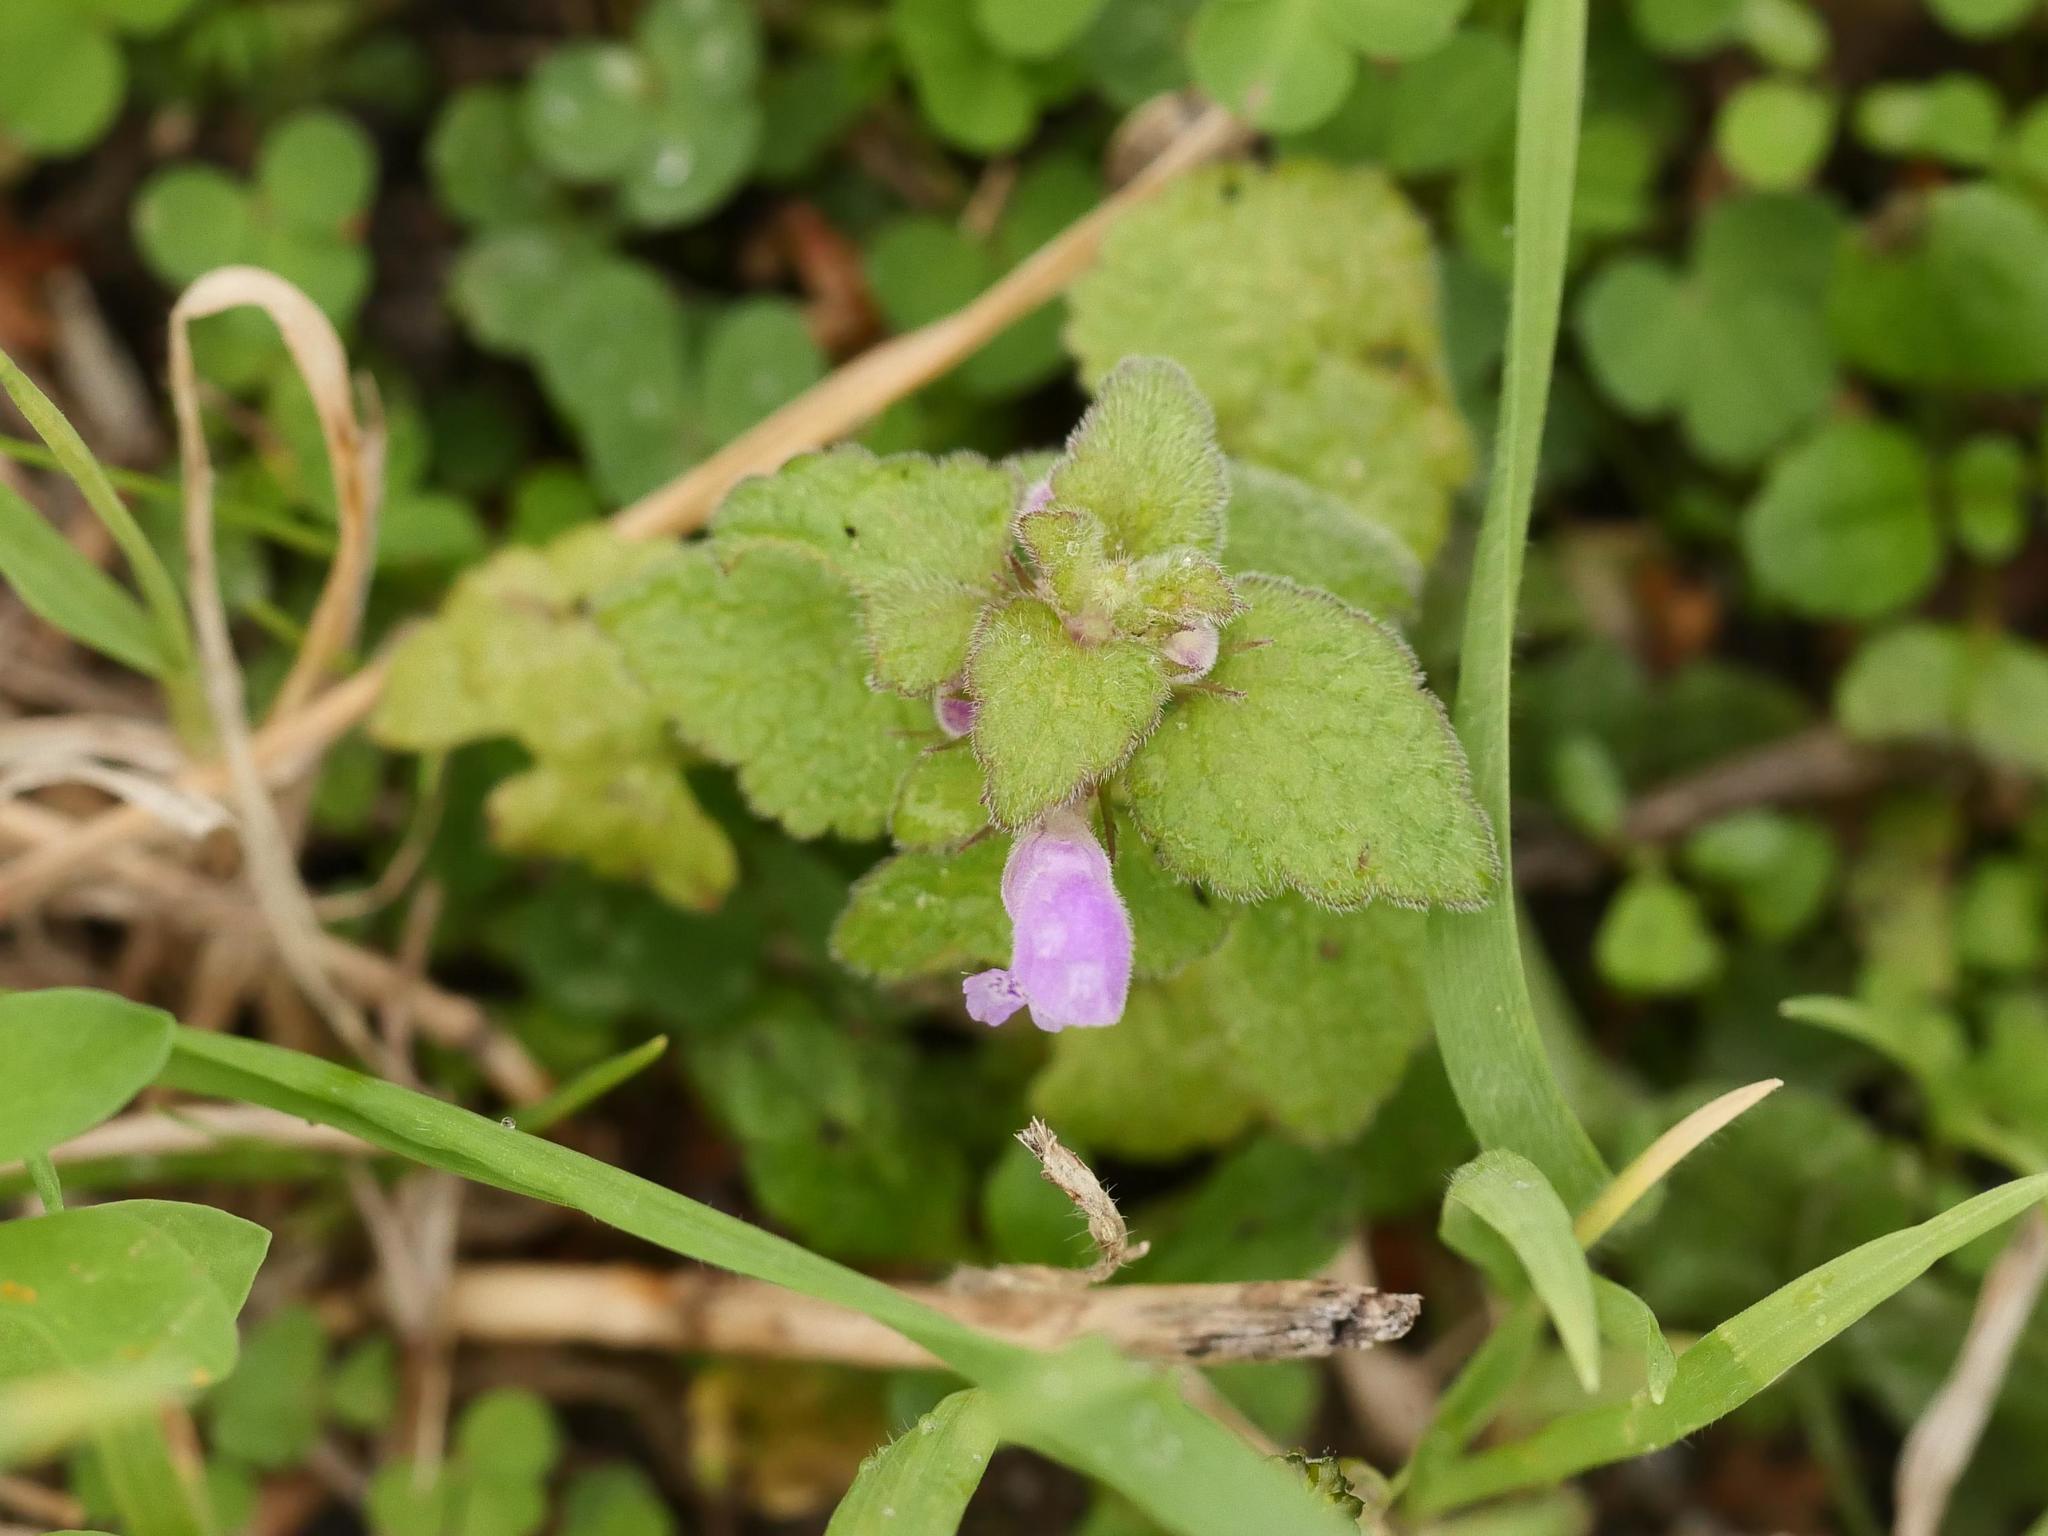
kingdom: Plantae
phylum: Tracheophyta
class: Magnoliopsida
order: Lamiales
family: Lamiaceae
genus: Lamium
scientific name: Lamium purpureum
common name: Red dead-nettle
